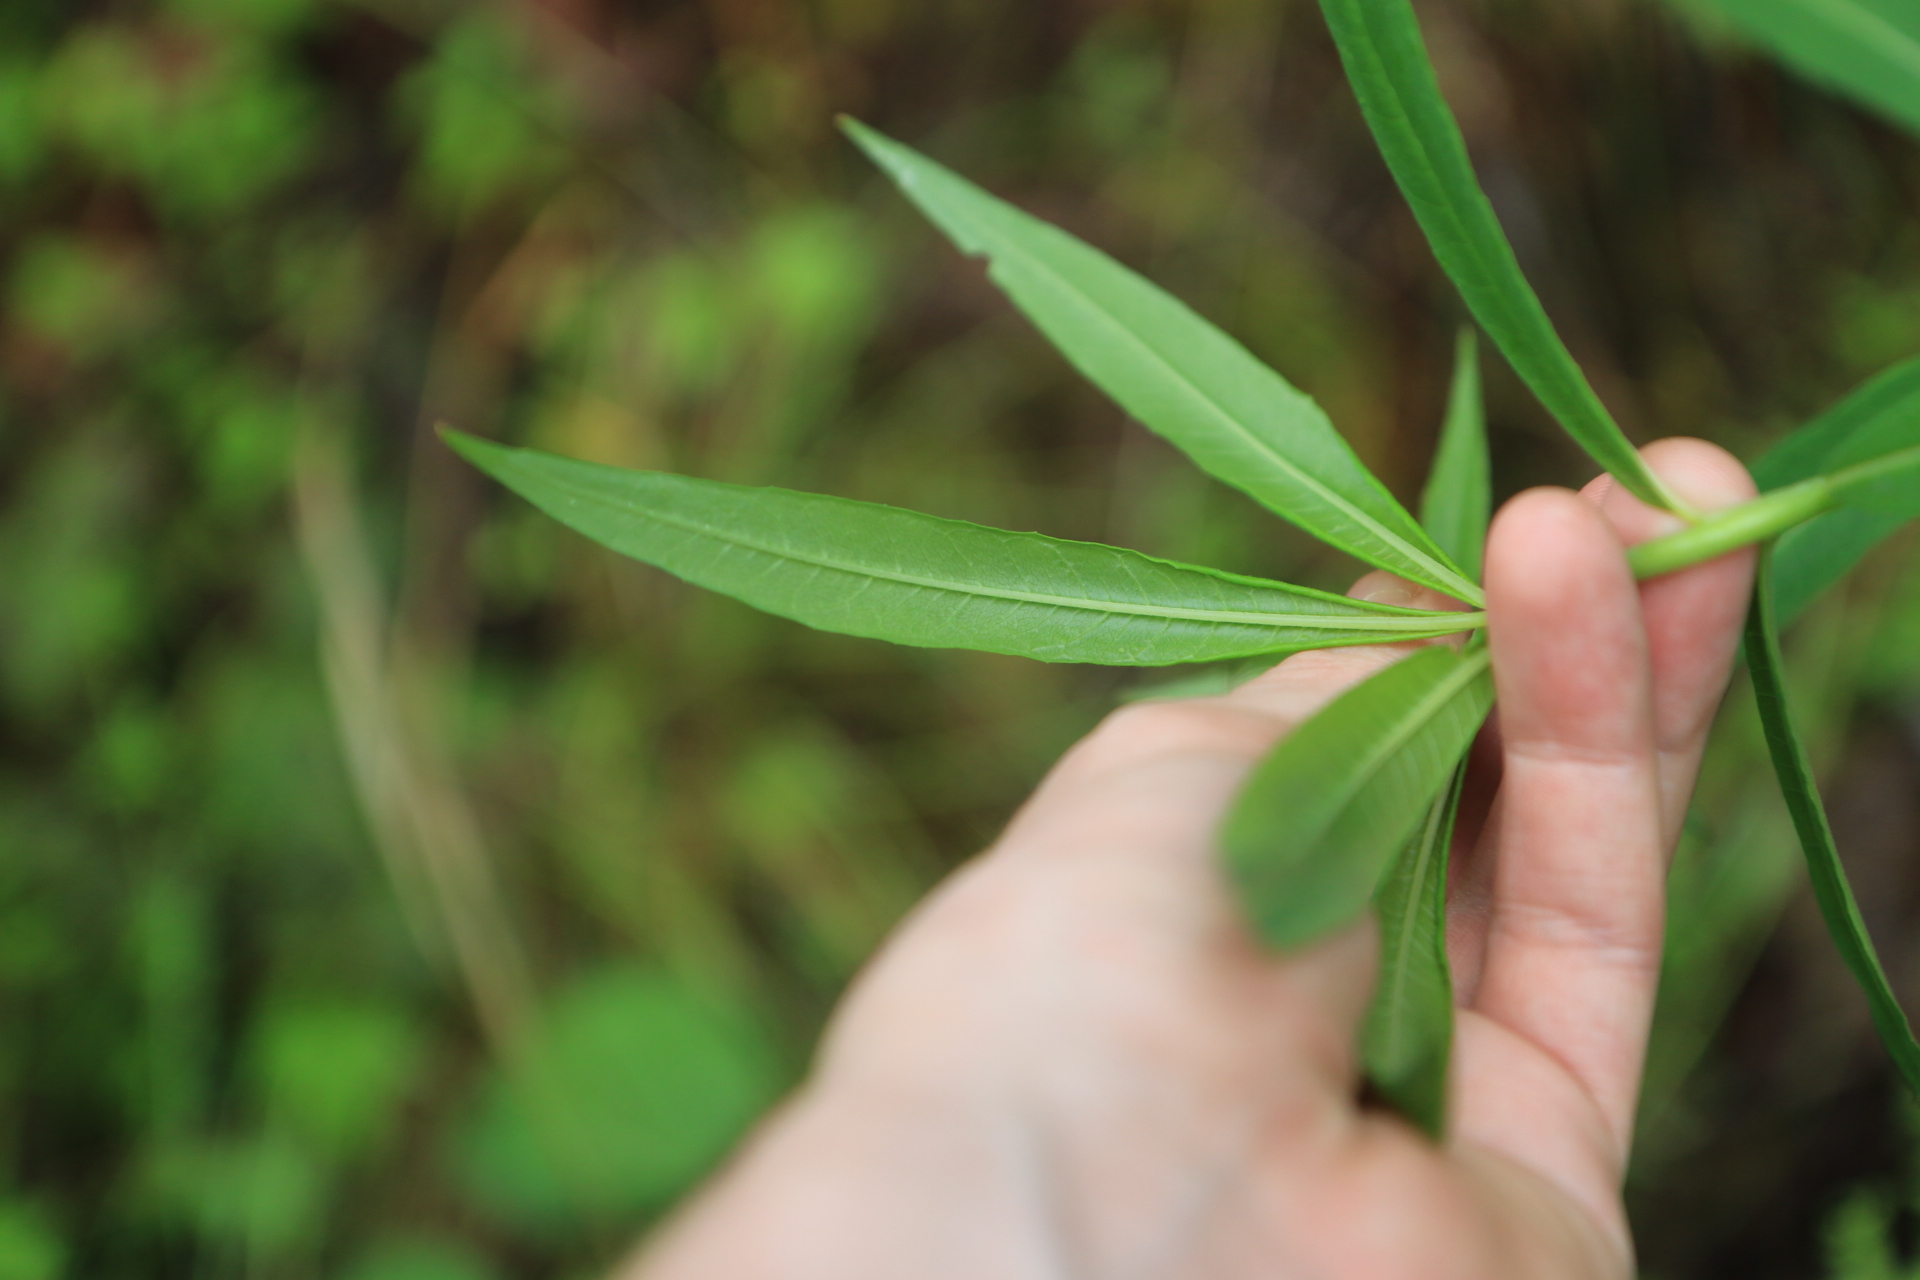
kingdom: Plantae
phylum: Tracheophyta
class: Magnoliopsida
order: Myrtales
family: Onagraceae
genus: Chamaenerion
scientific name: Chamaenerion angustifolium
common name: Fireweed
